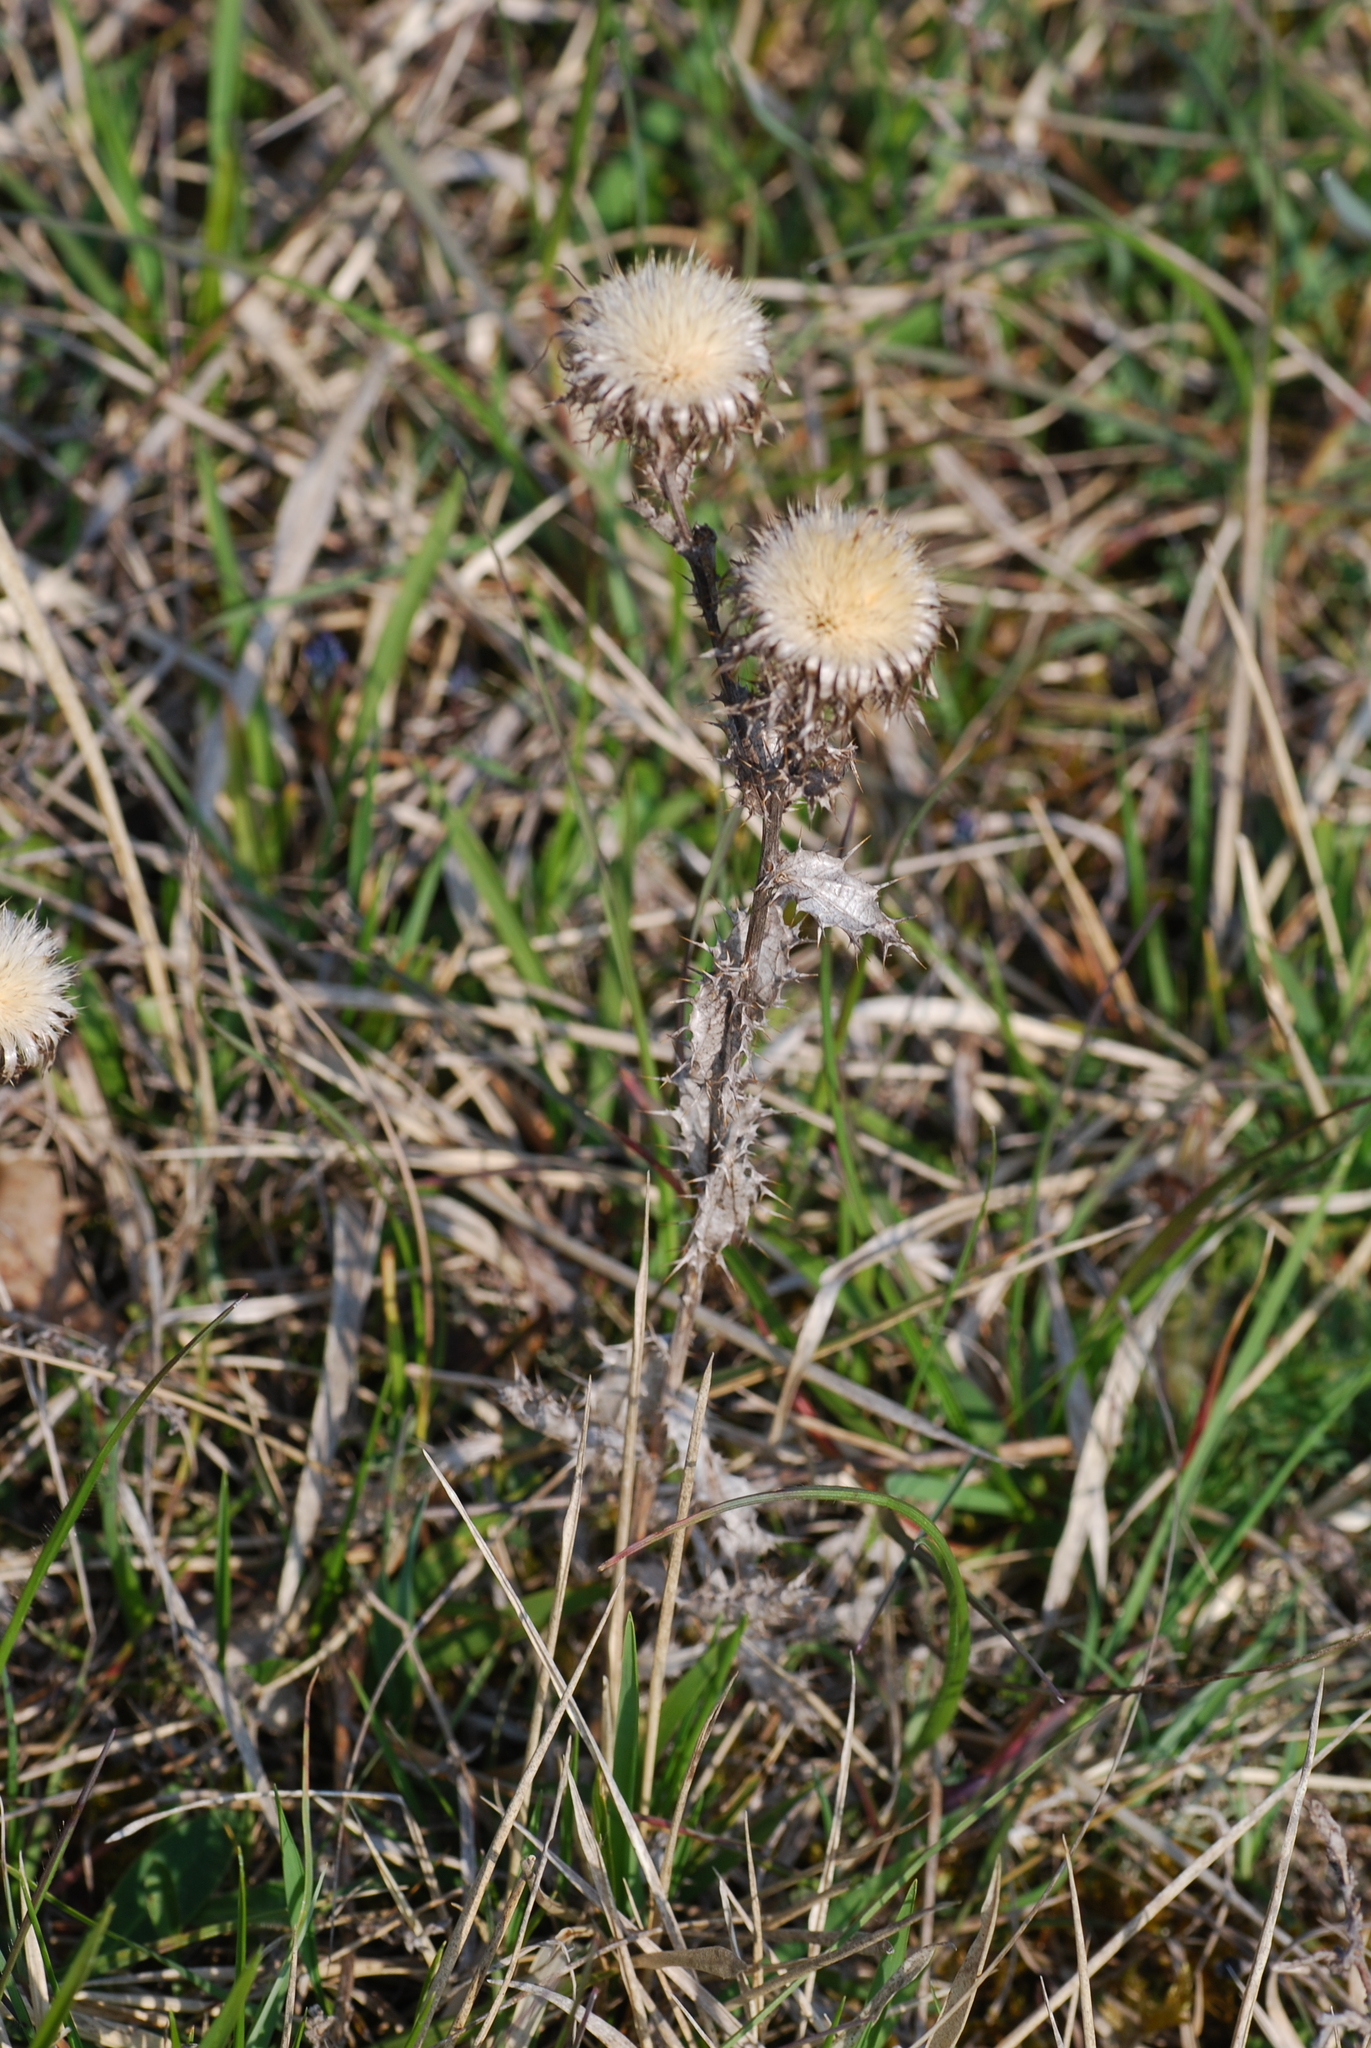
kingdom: Plantae
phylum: Tracheophyta
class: Magnoliopsida
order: Asterales
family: Asteraceae
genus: Carlina
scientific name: Carlina vulgaris
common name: Carline thistle
